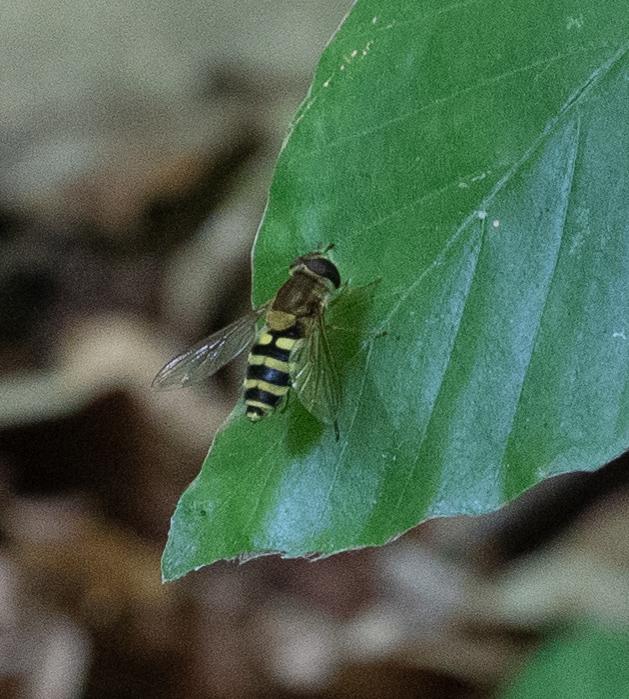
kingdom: Animalia
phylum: Arthropoda
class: Insecta
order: Diptera
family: Syrphidae
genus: Syrphus
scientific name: Syrphus
